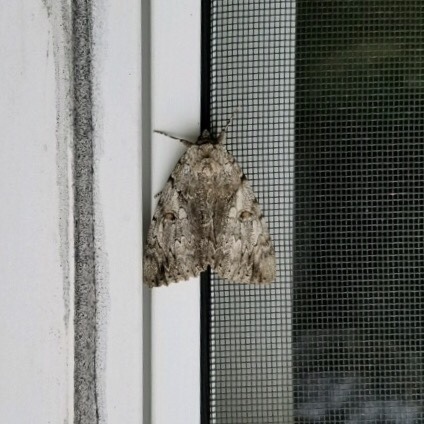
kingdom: Animalia
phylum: Arthropoda
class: Insecta
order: Lepidoptera
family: Erebidae
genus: Catocala
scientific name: Catocala subnata
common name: Youthful underwing
